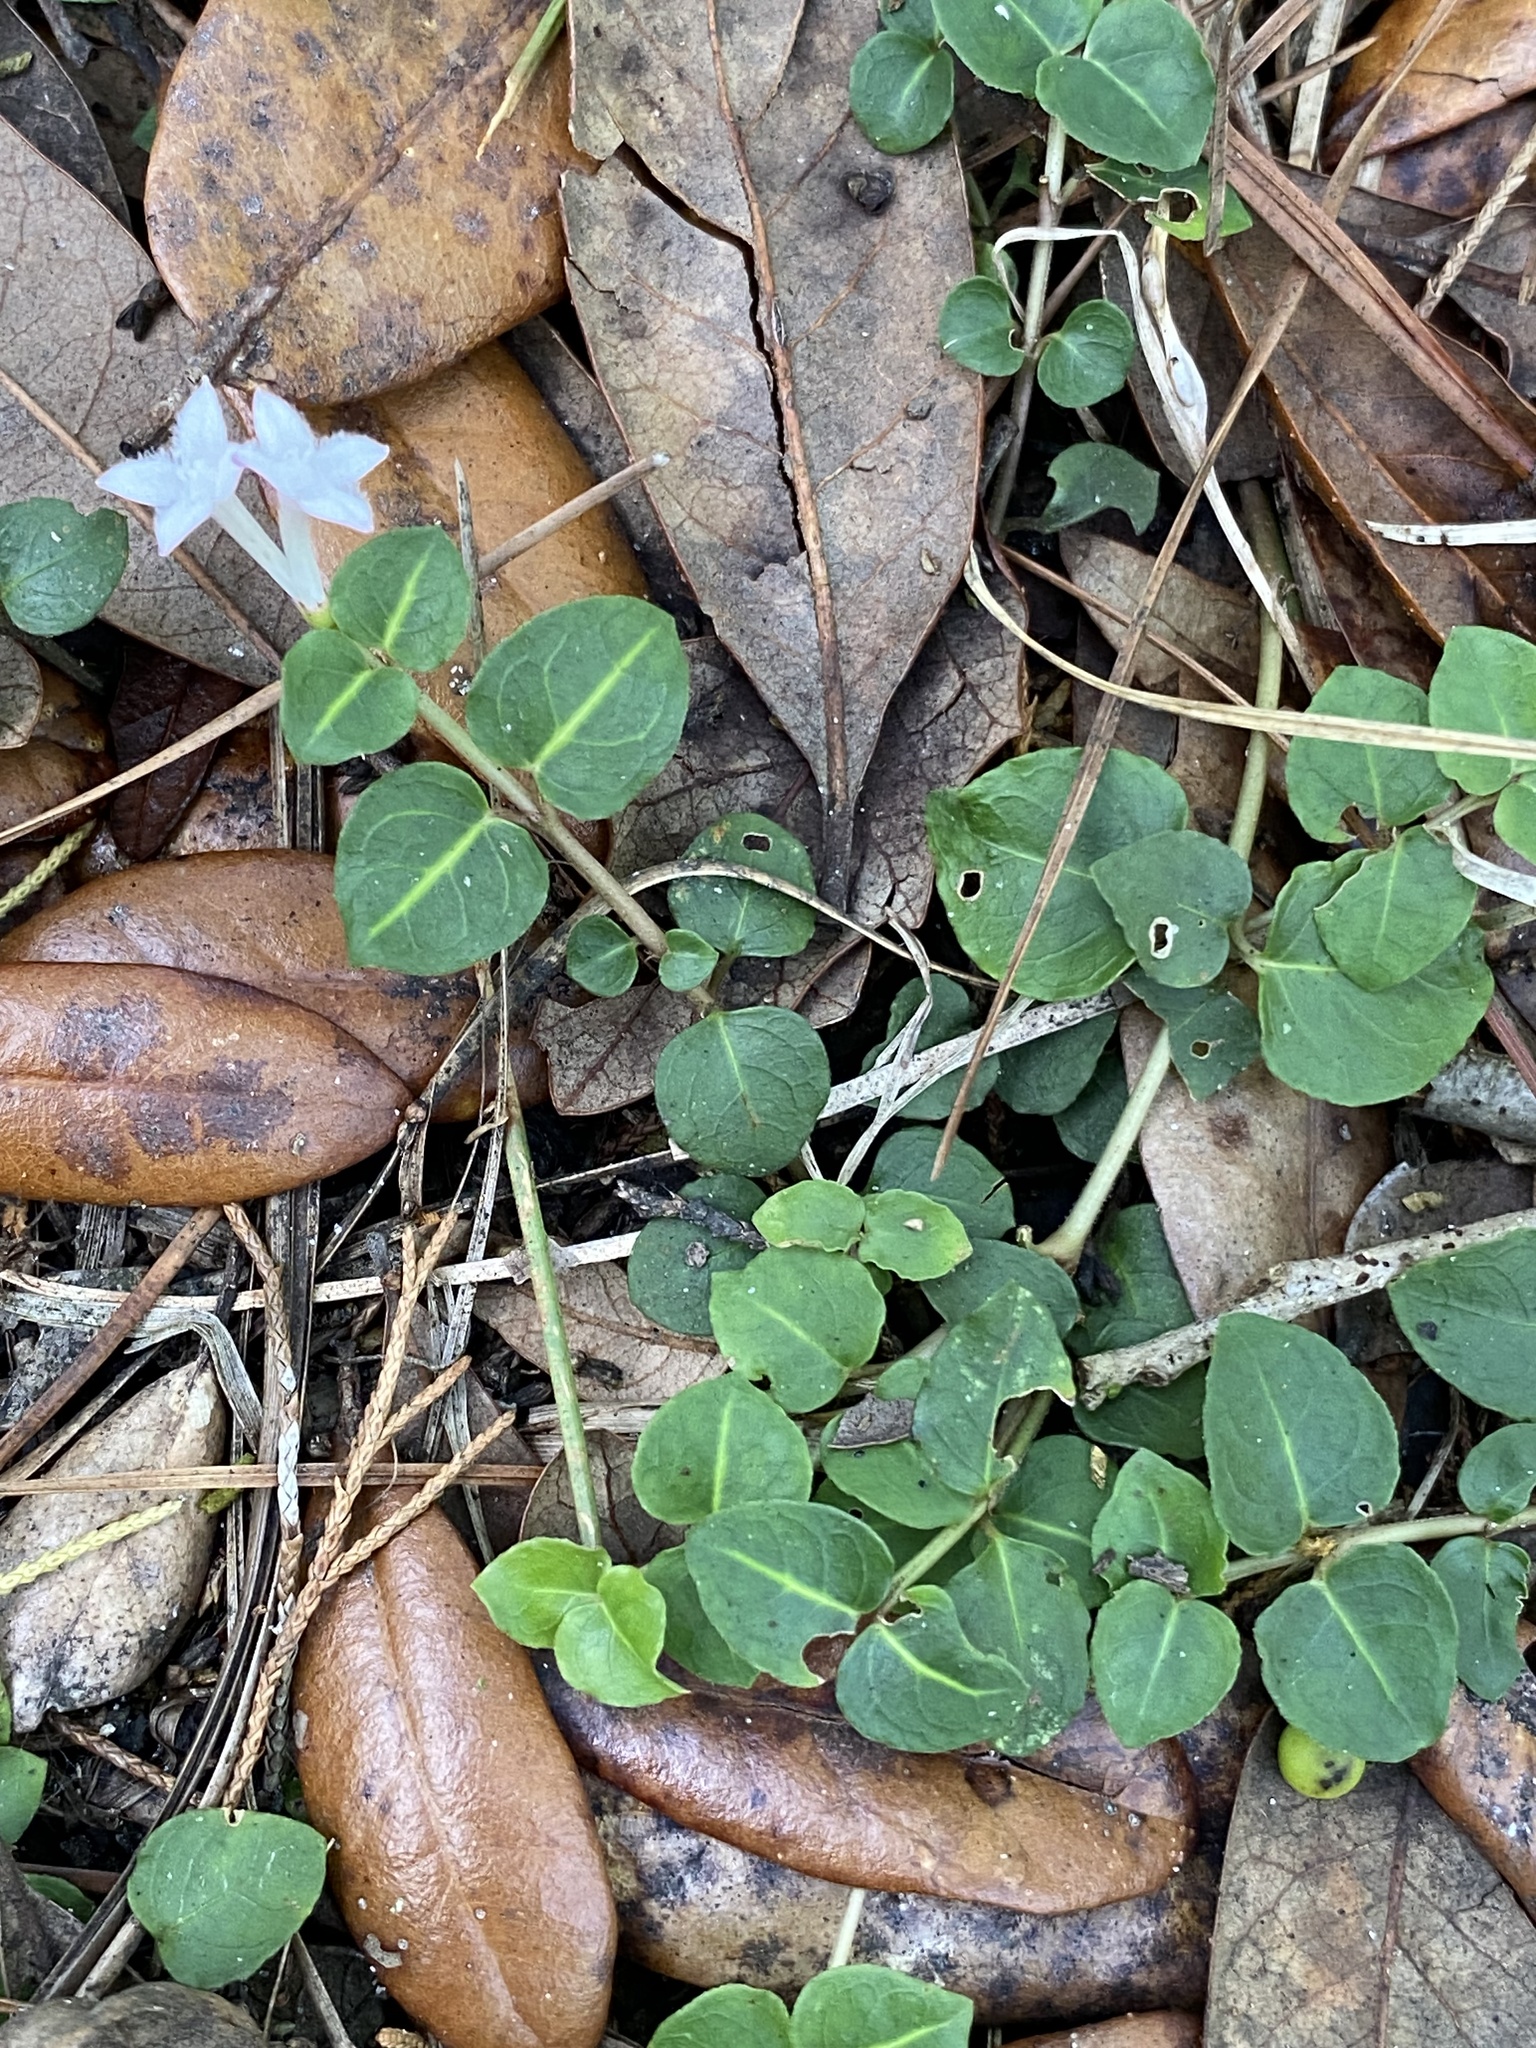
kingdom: Plantae
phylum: Tracheophyta
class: Magnoliopsida
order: Gentianales
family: Rubiaceae
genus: Mitchella
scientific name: Mitchella repens
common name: Partridge-berry
